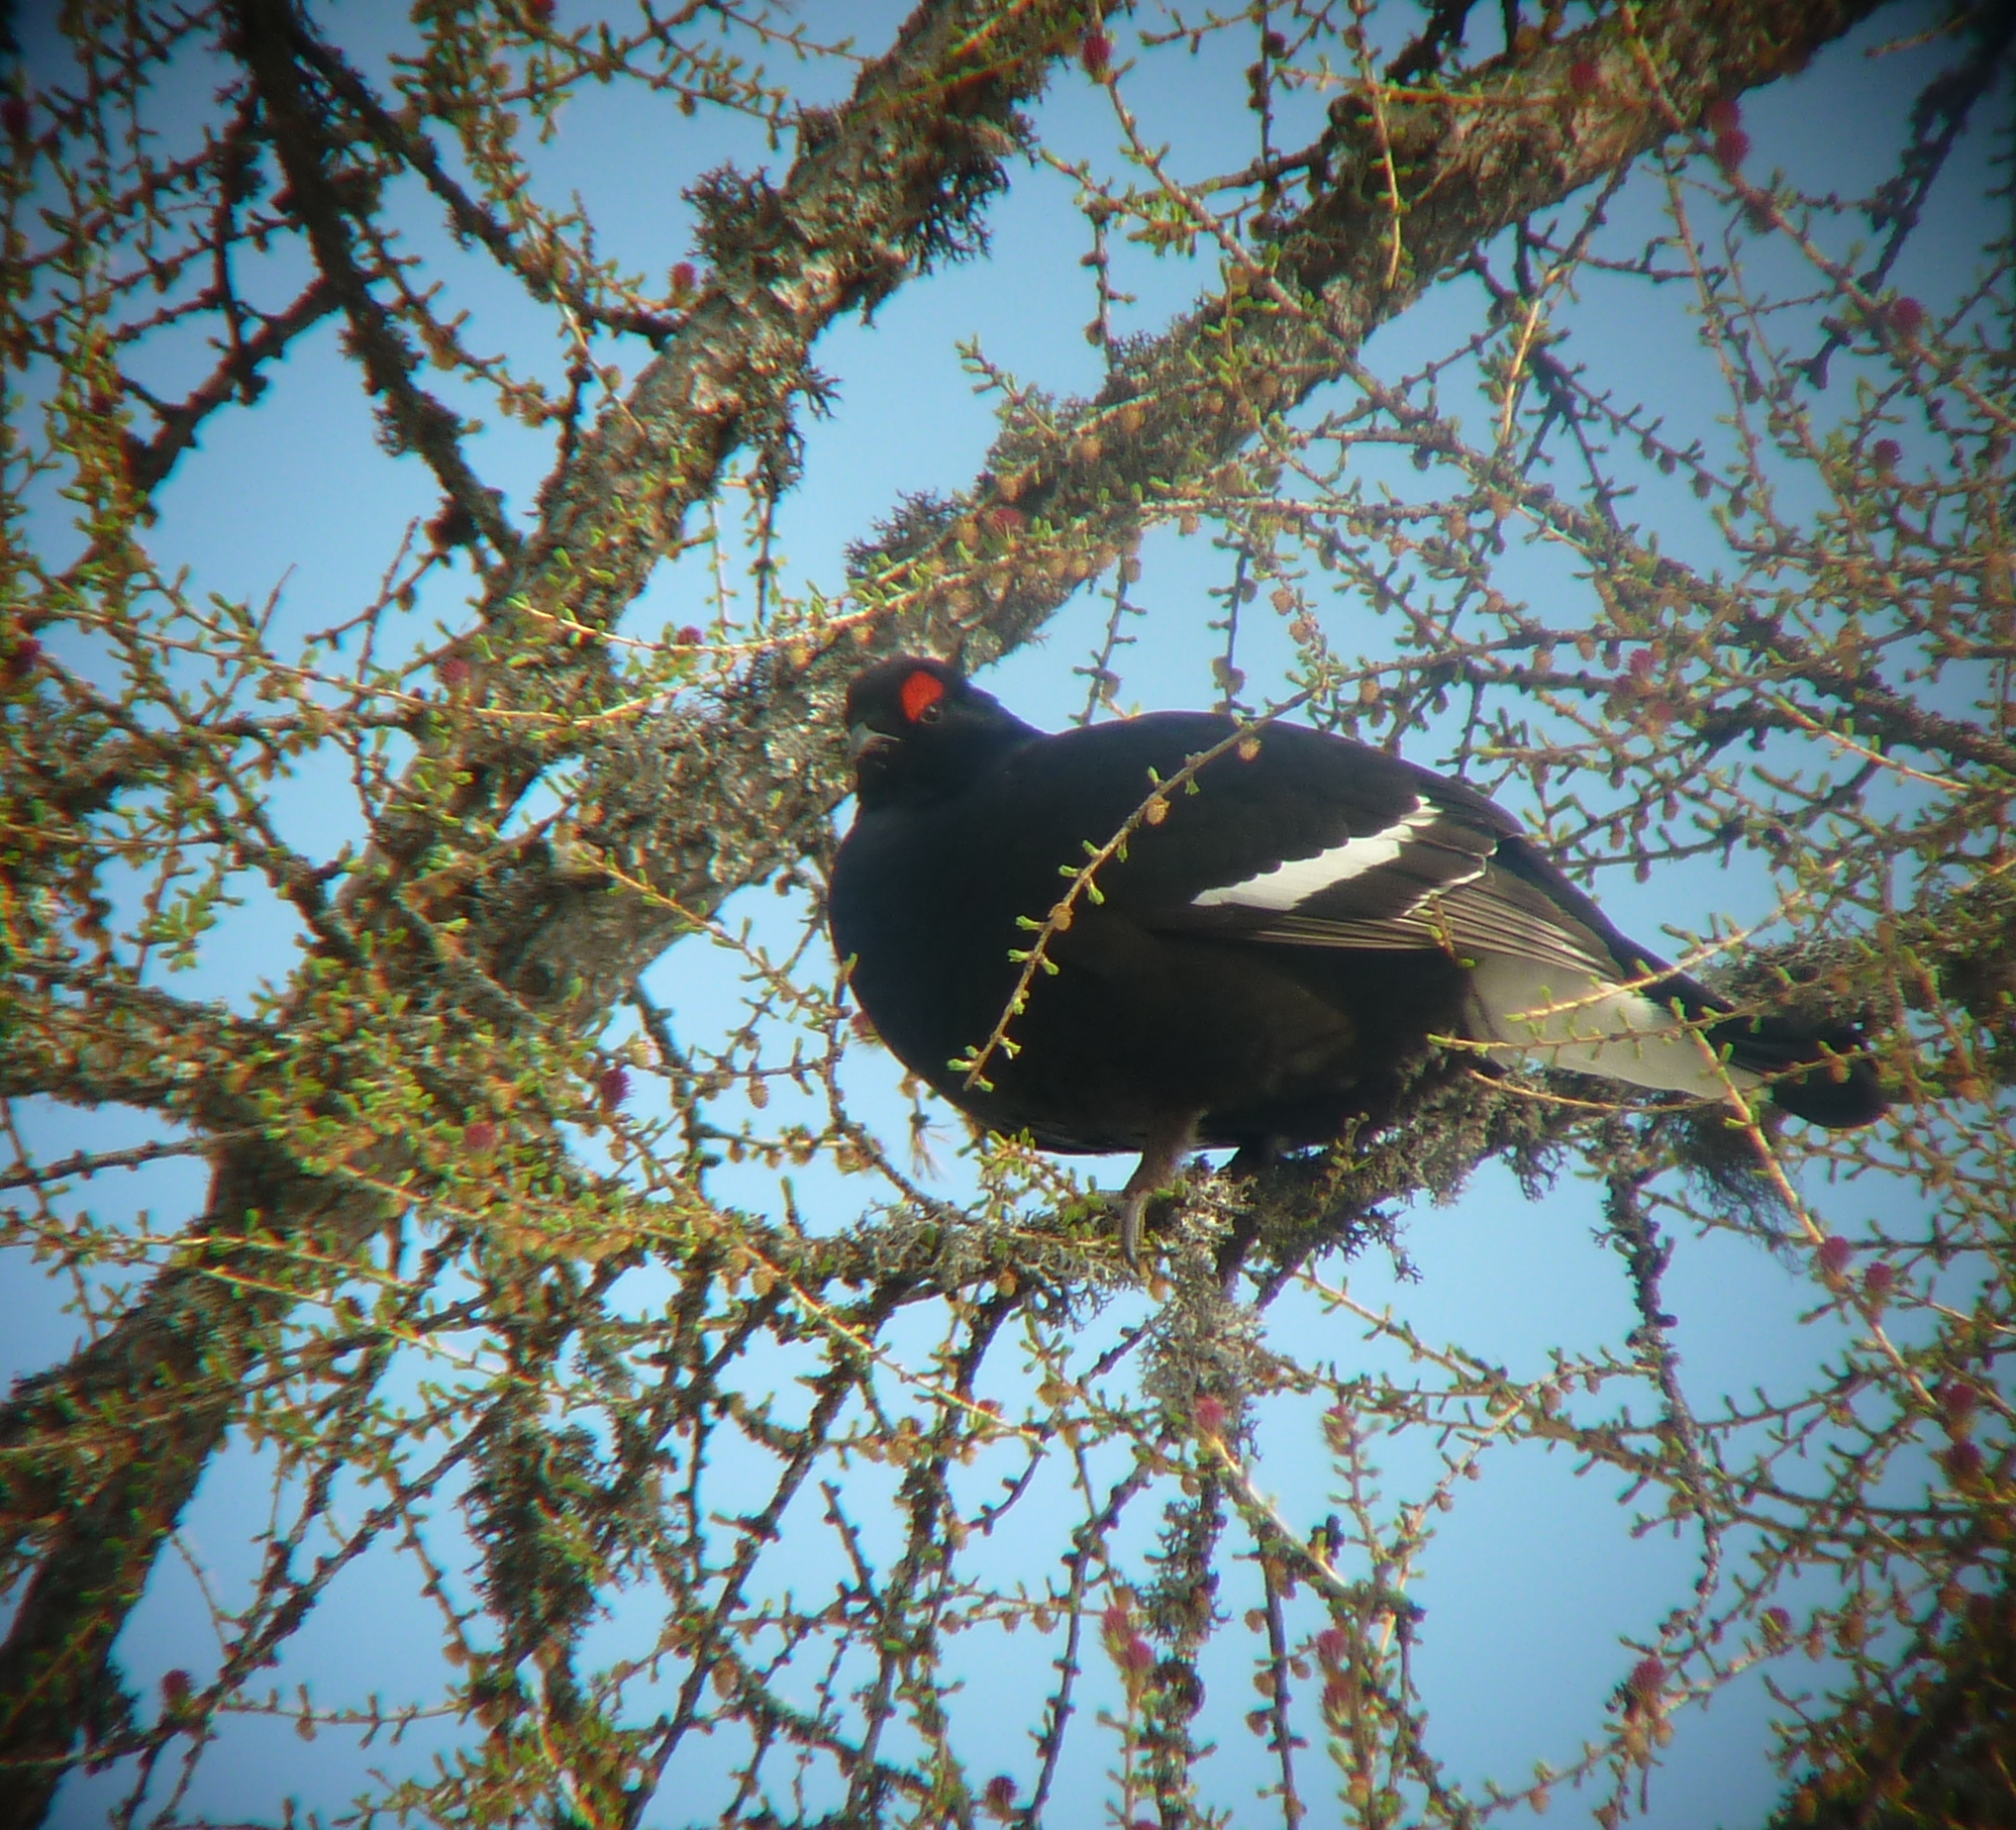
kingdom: Animalia
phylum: Chordata
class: Aves
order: Galliformes
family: Phasianidae
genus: Lyrurus
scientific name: Lyrurus tetrix
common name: Black grouse
